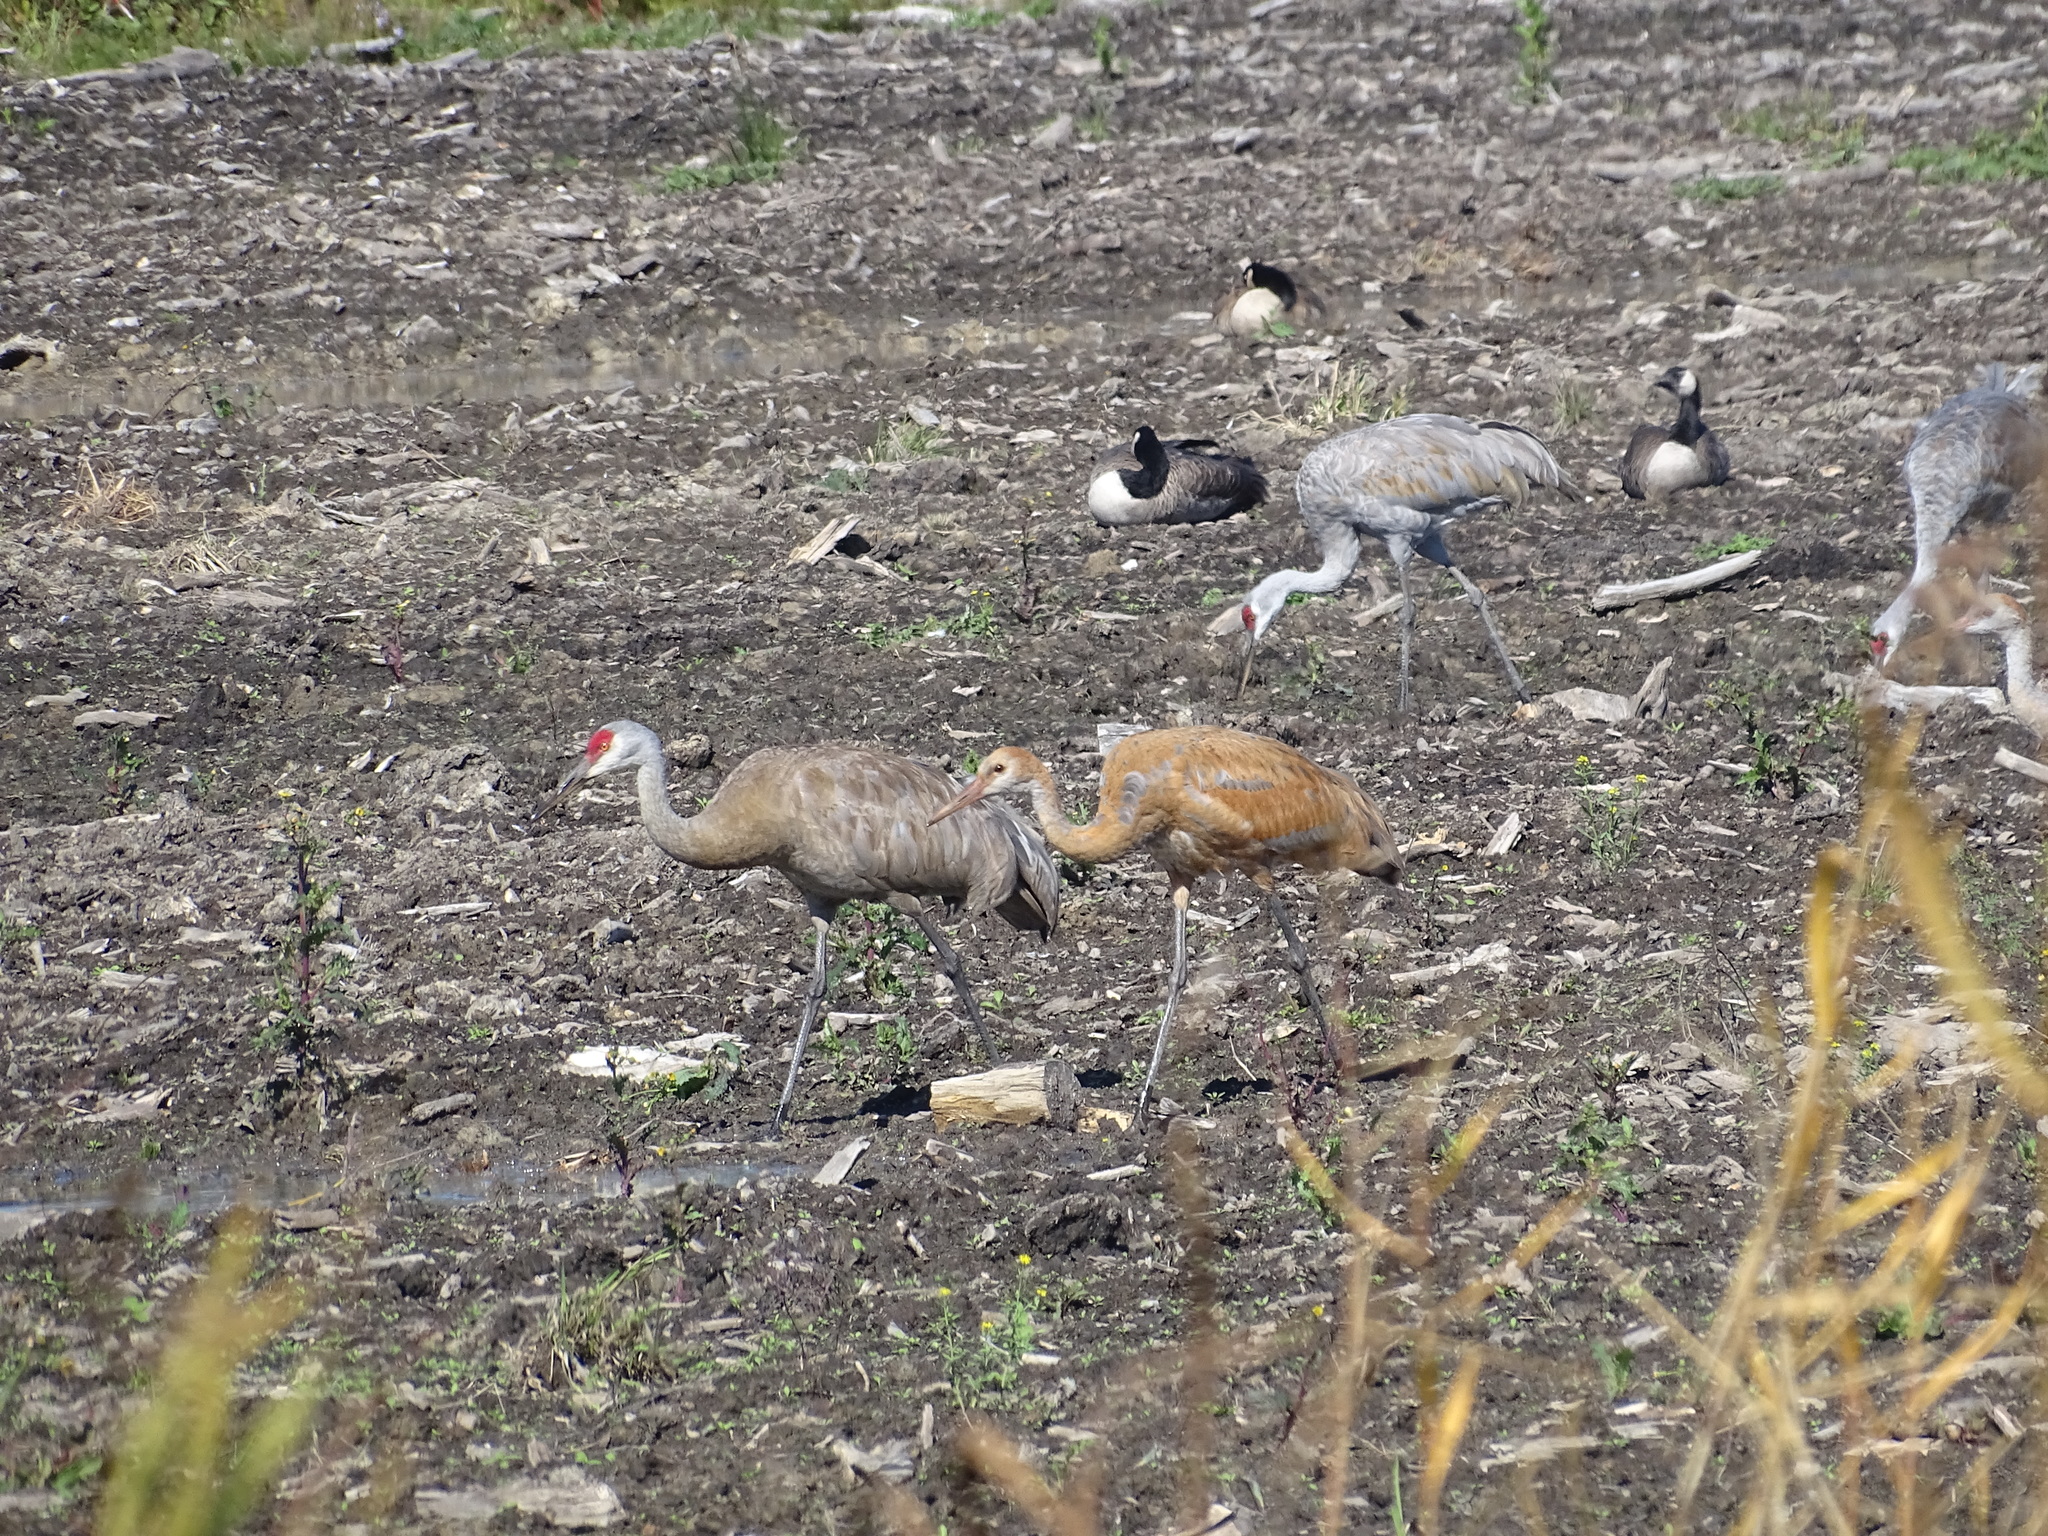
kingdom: Animalia
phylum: Chordata
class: Aves
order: Gruiformes
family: Gruidae
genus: Grus
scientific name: Grus canadensis
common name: Sandhill crane
